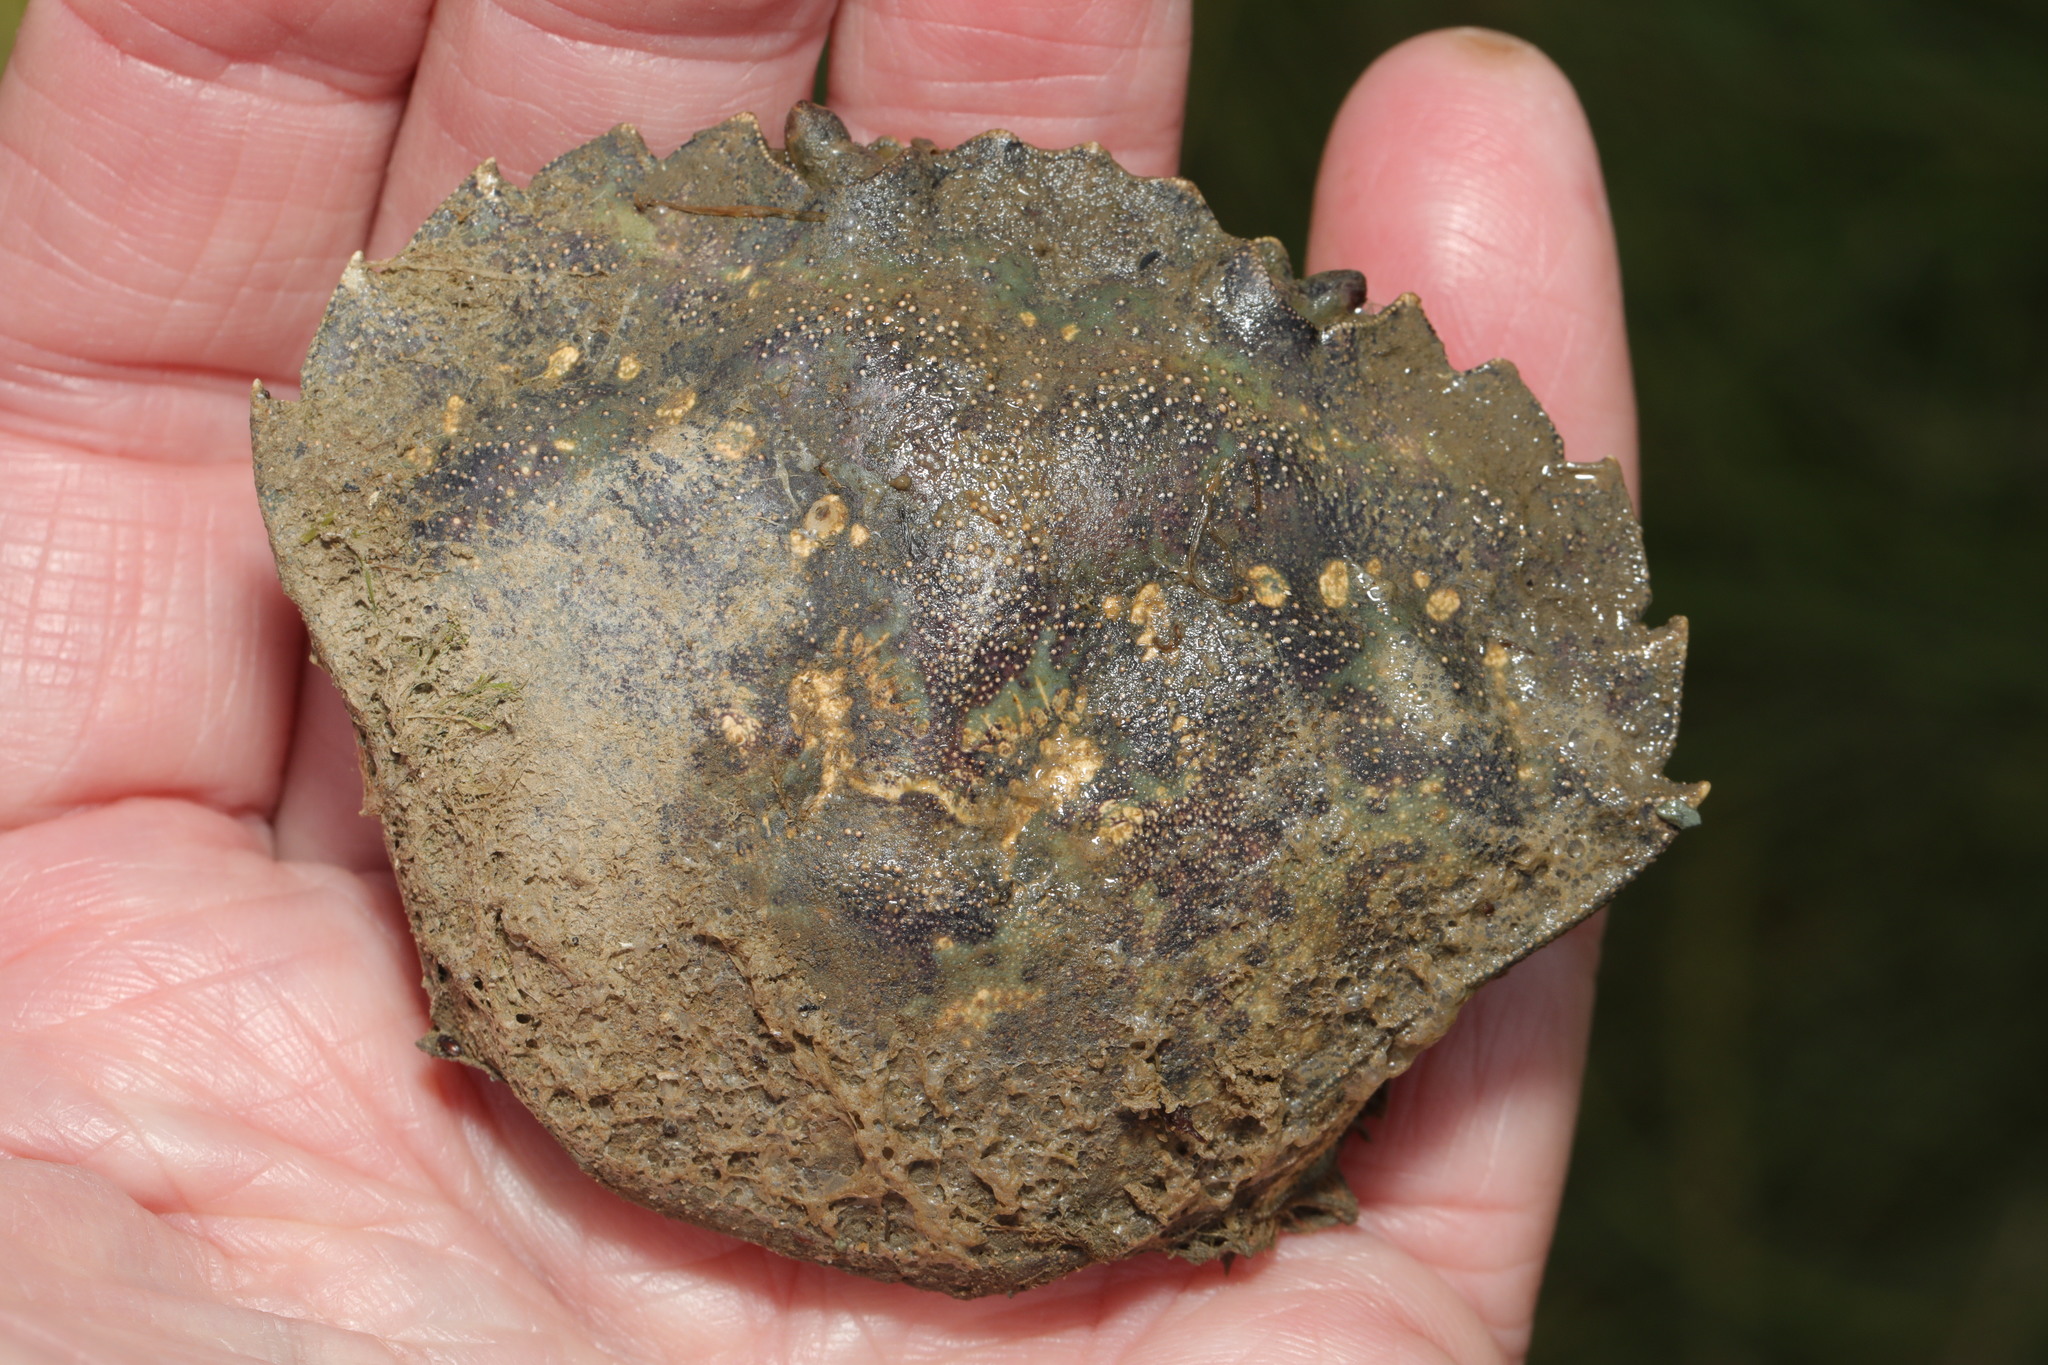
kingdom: Animalia
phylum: Arthropoda
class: Malacostraca
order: Decapoda
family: Carcinidae
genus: Carcinus
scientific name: Carcinus maenas
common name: European green crab
